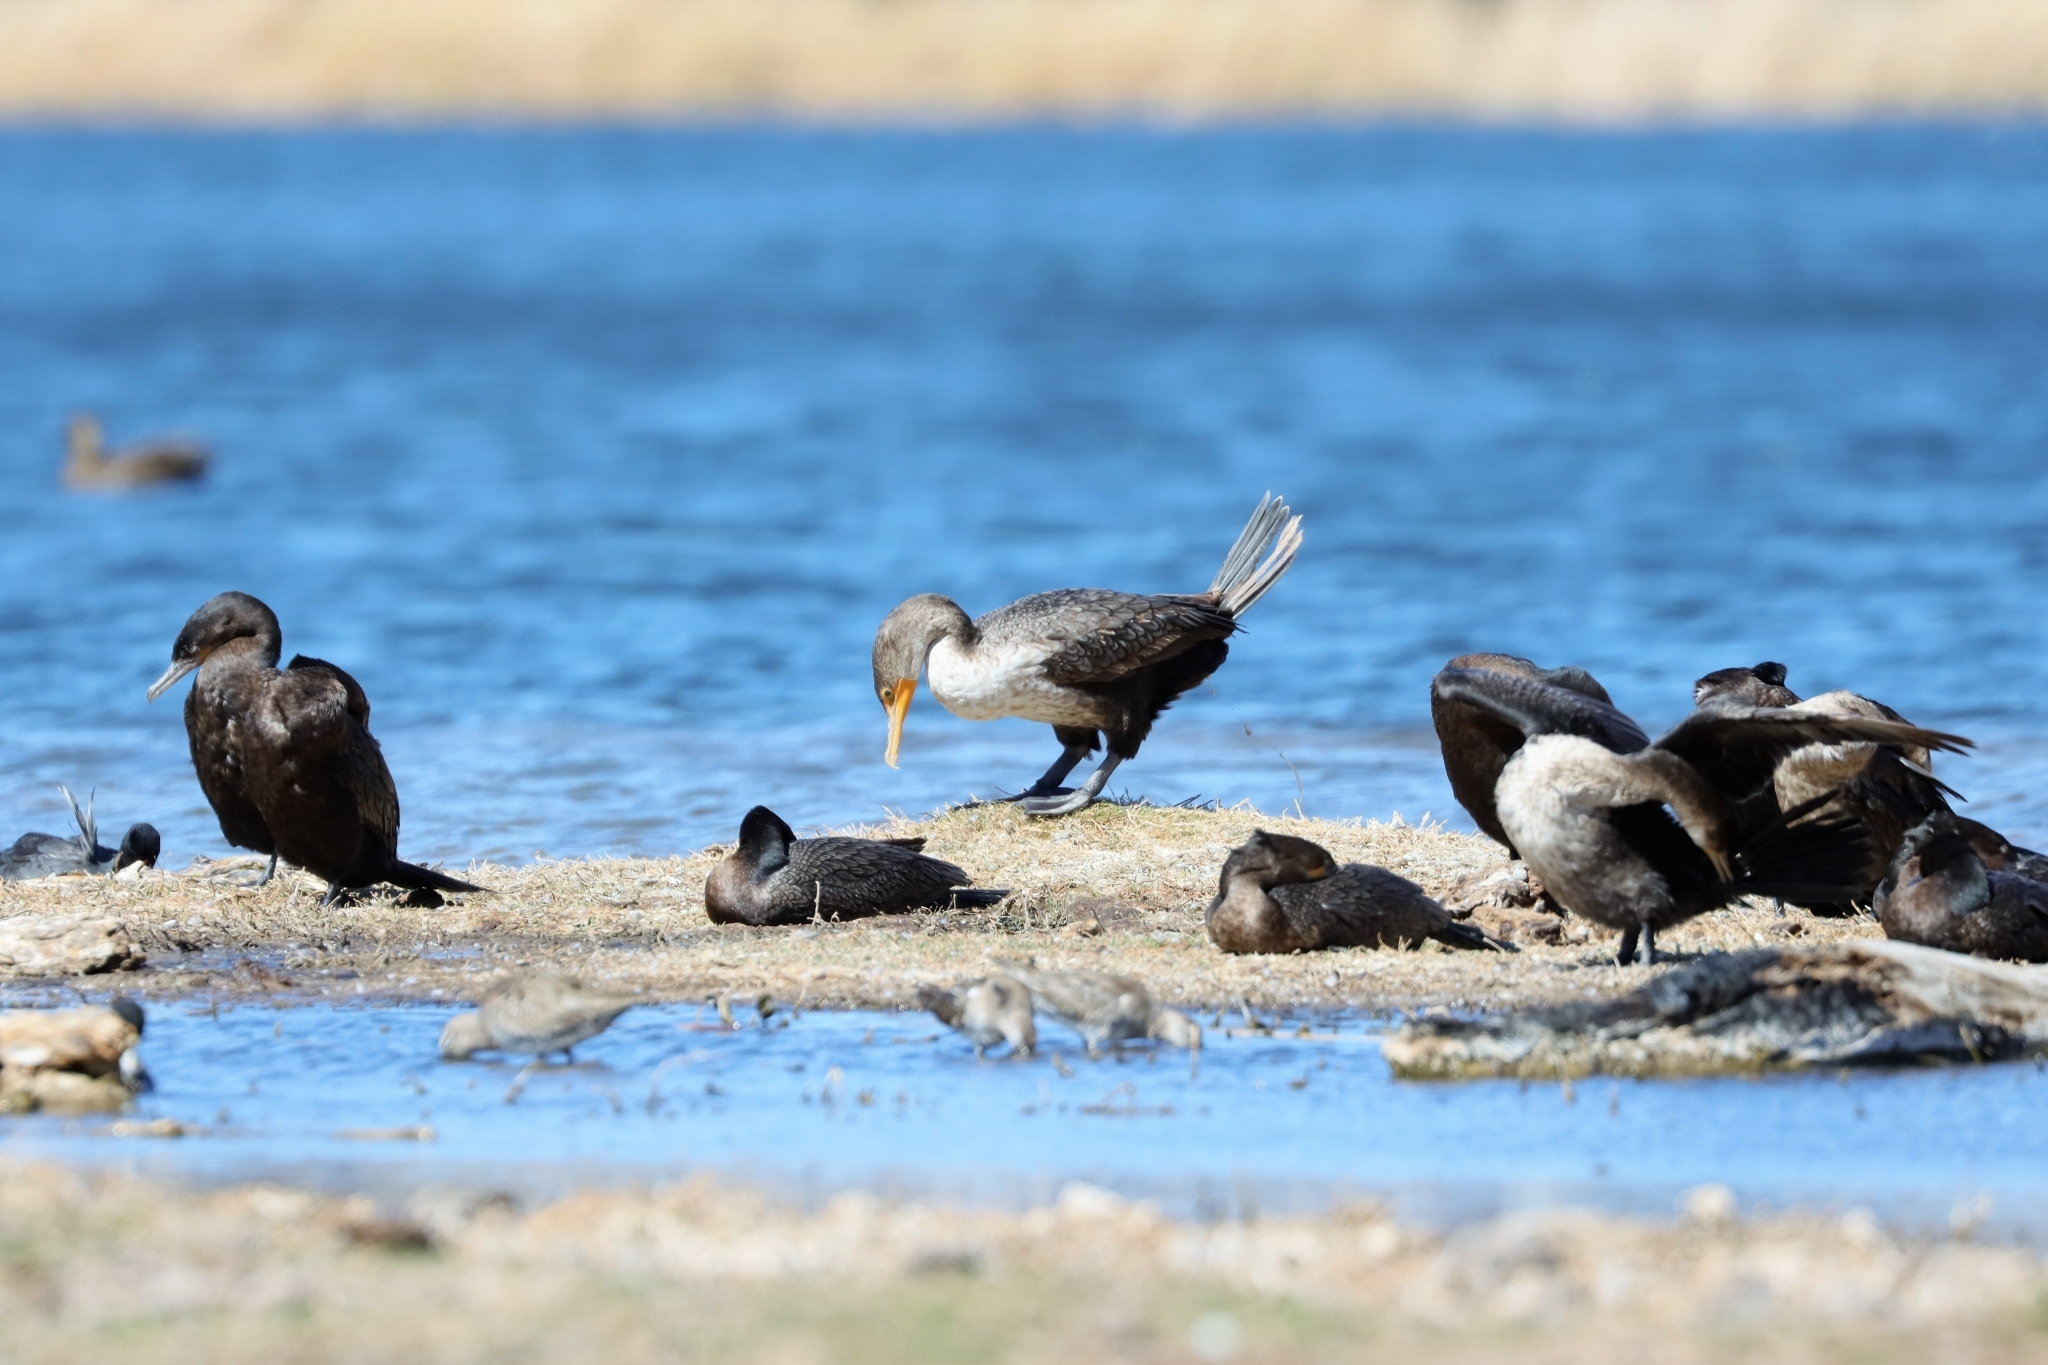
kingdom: Animalia
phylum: Chordata
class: Aves
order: Suliformes
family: Phalacrocoracidae
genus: Phalacrocorax
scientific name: Phalacrocorax auritus
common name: Double-crested cormorant
